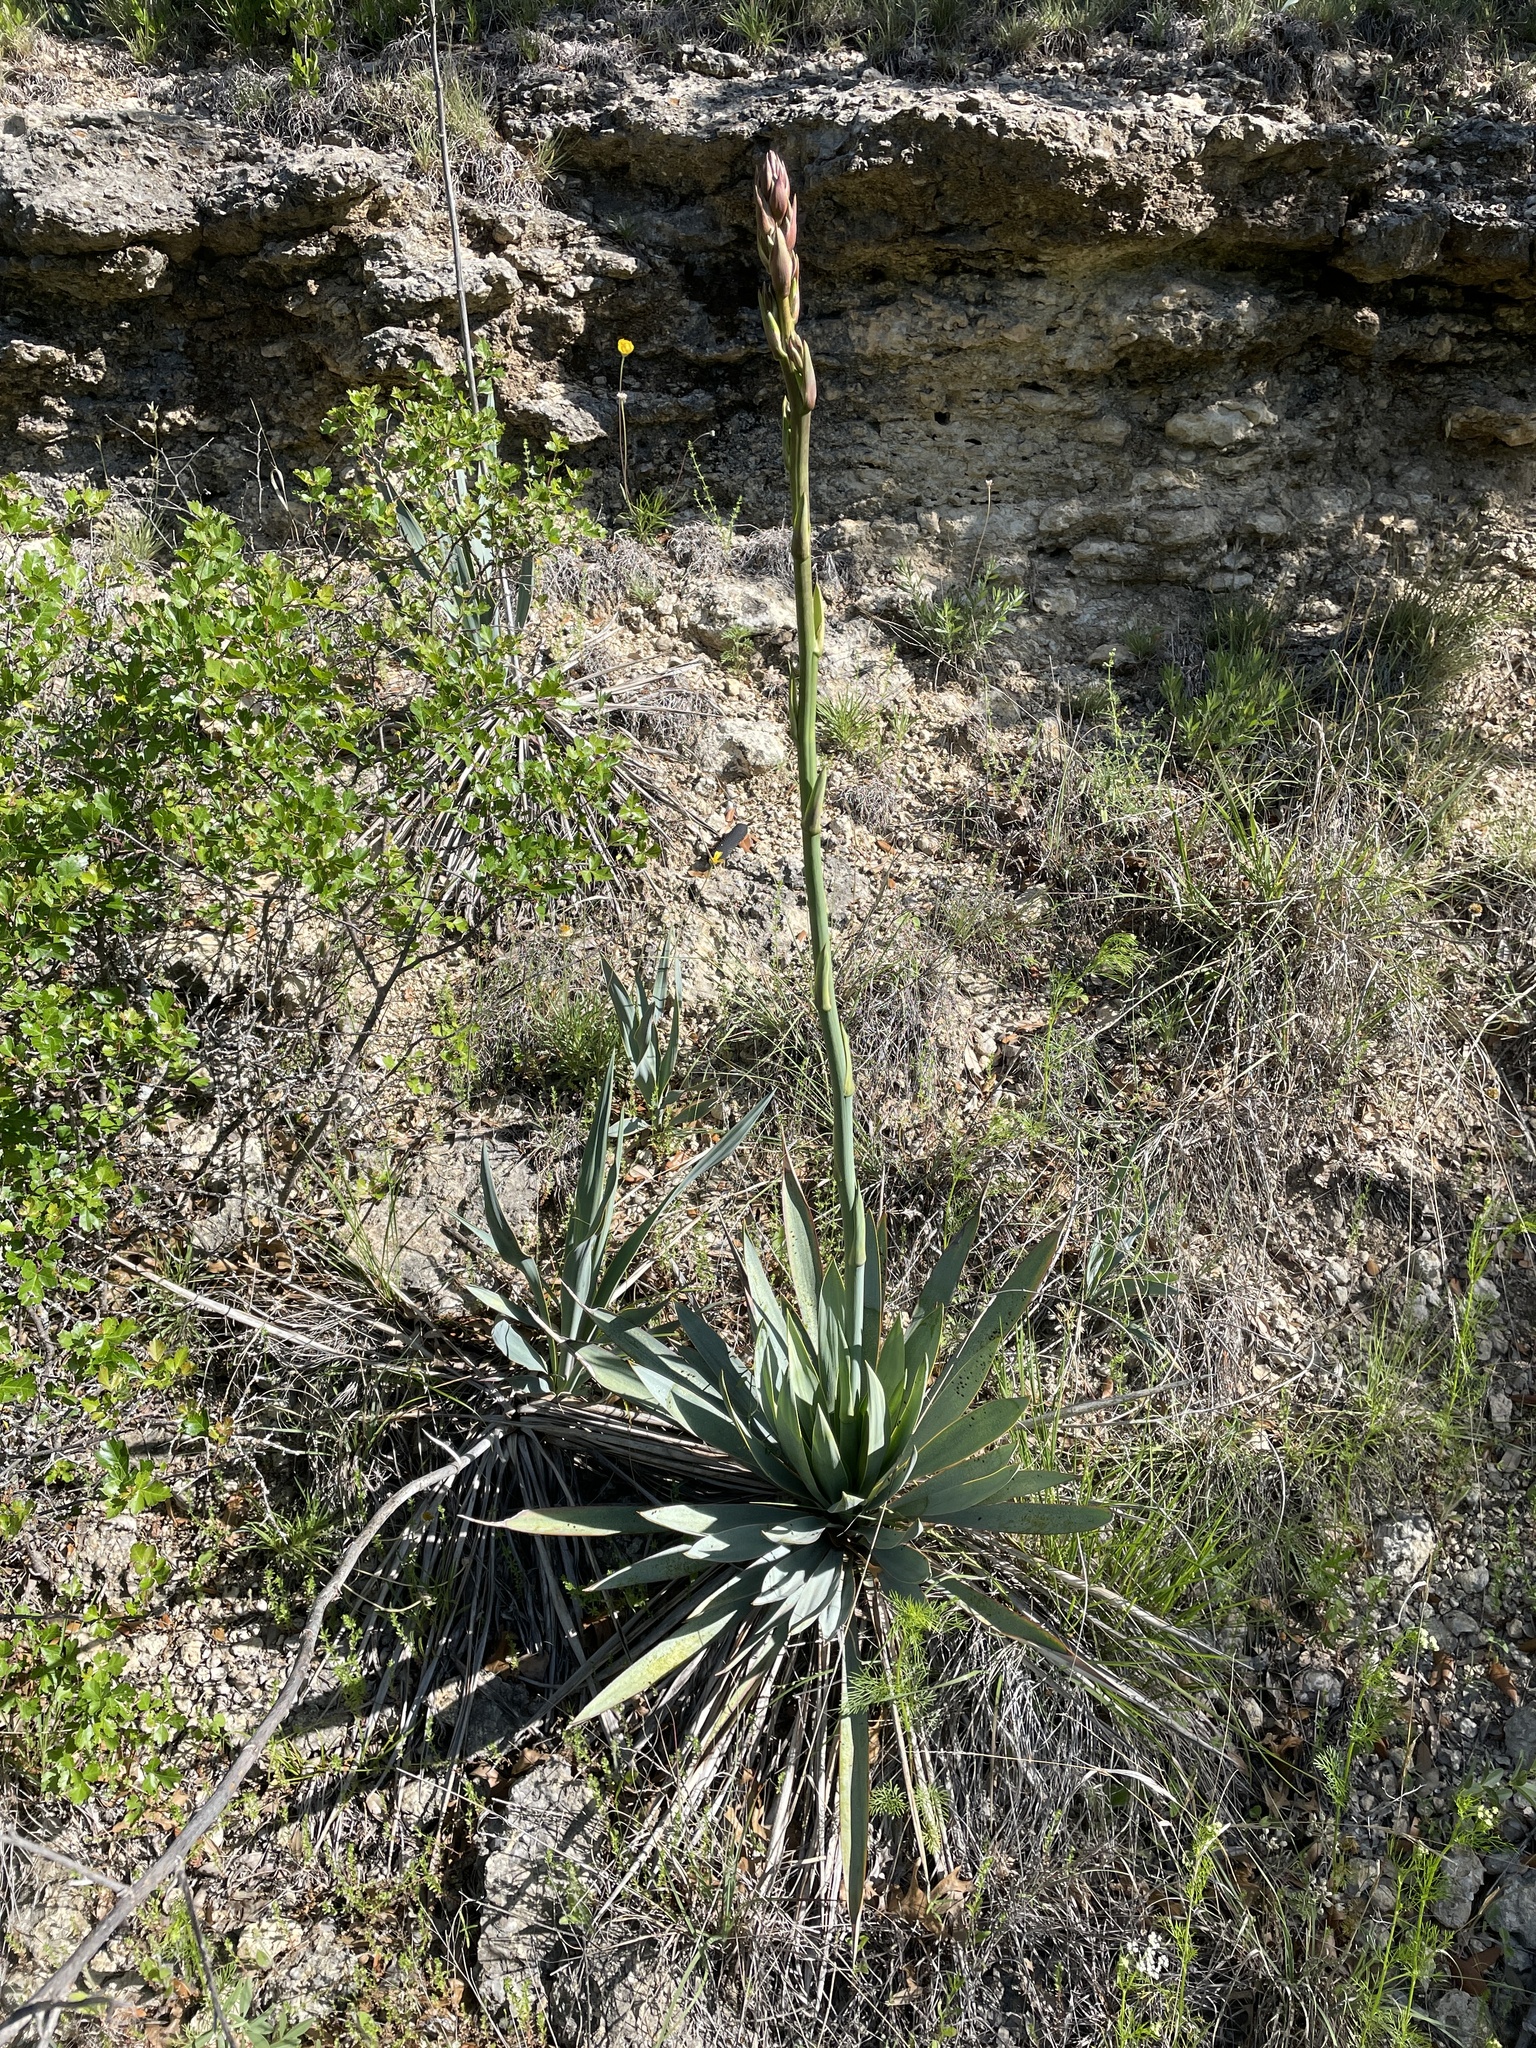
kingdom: Plantae
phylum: Tracheophyta
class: Liliopsida
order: Asparagales
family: Asparagaceae
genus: Yucca
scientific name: Yucca pallida
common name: Pale leaf yucca
